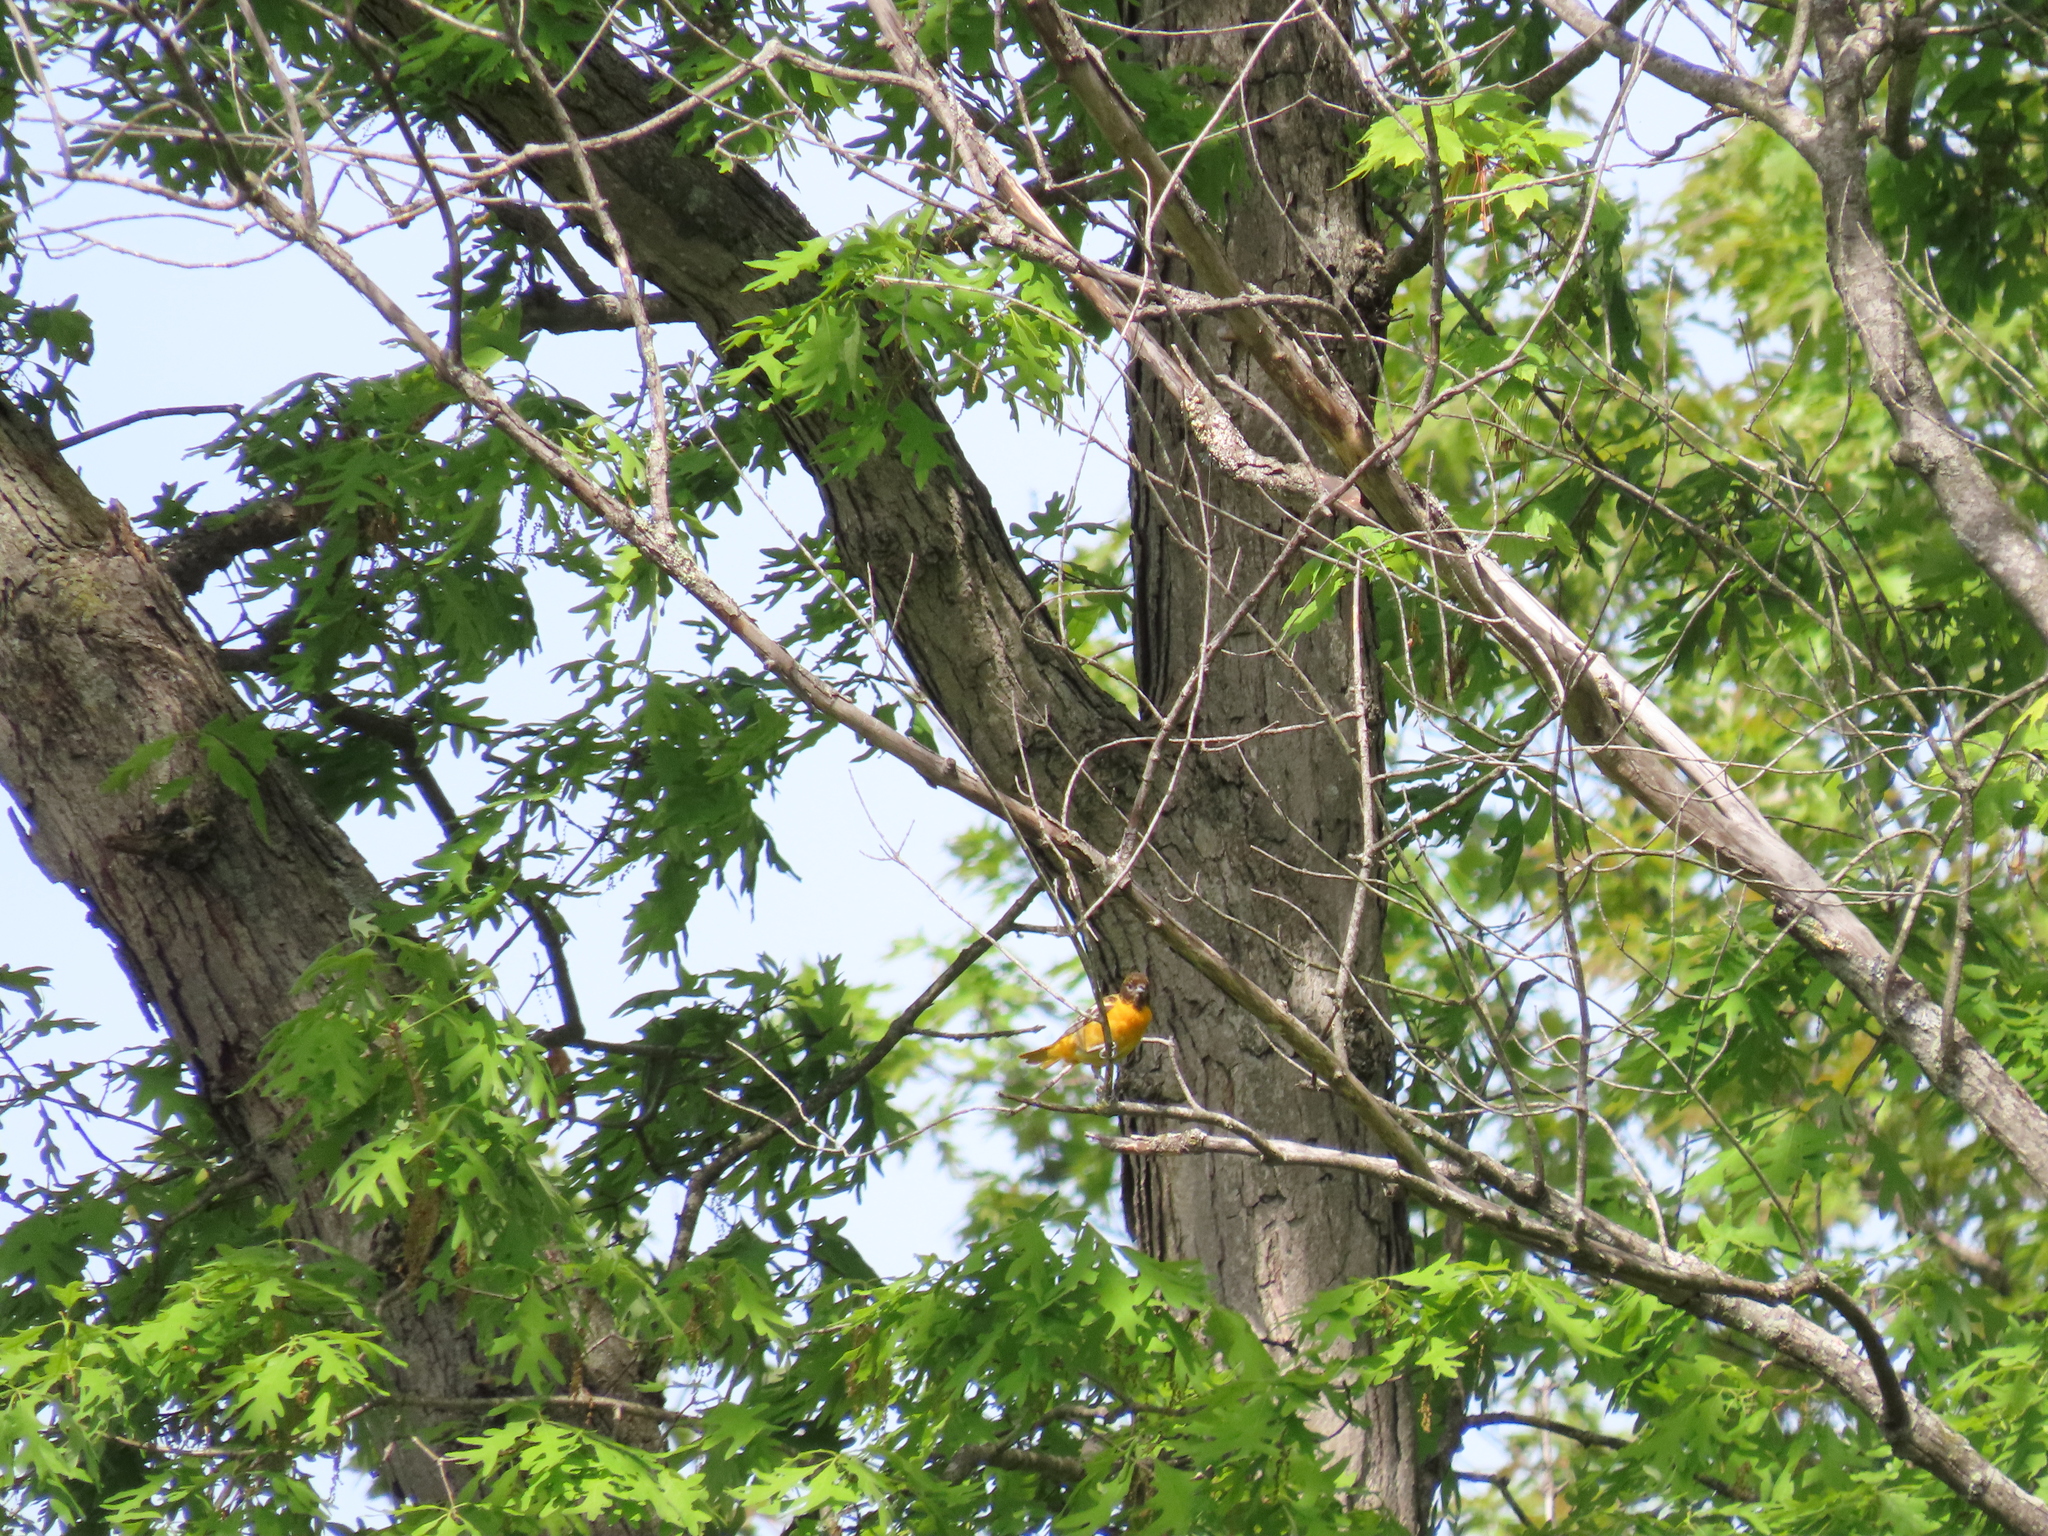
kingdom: Animalia
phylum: Chordata
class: Aves
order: Passeriformes
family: Icteridae
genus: Icterus
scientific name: Icterus galbula
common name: Baltimore oriole
